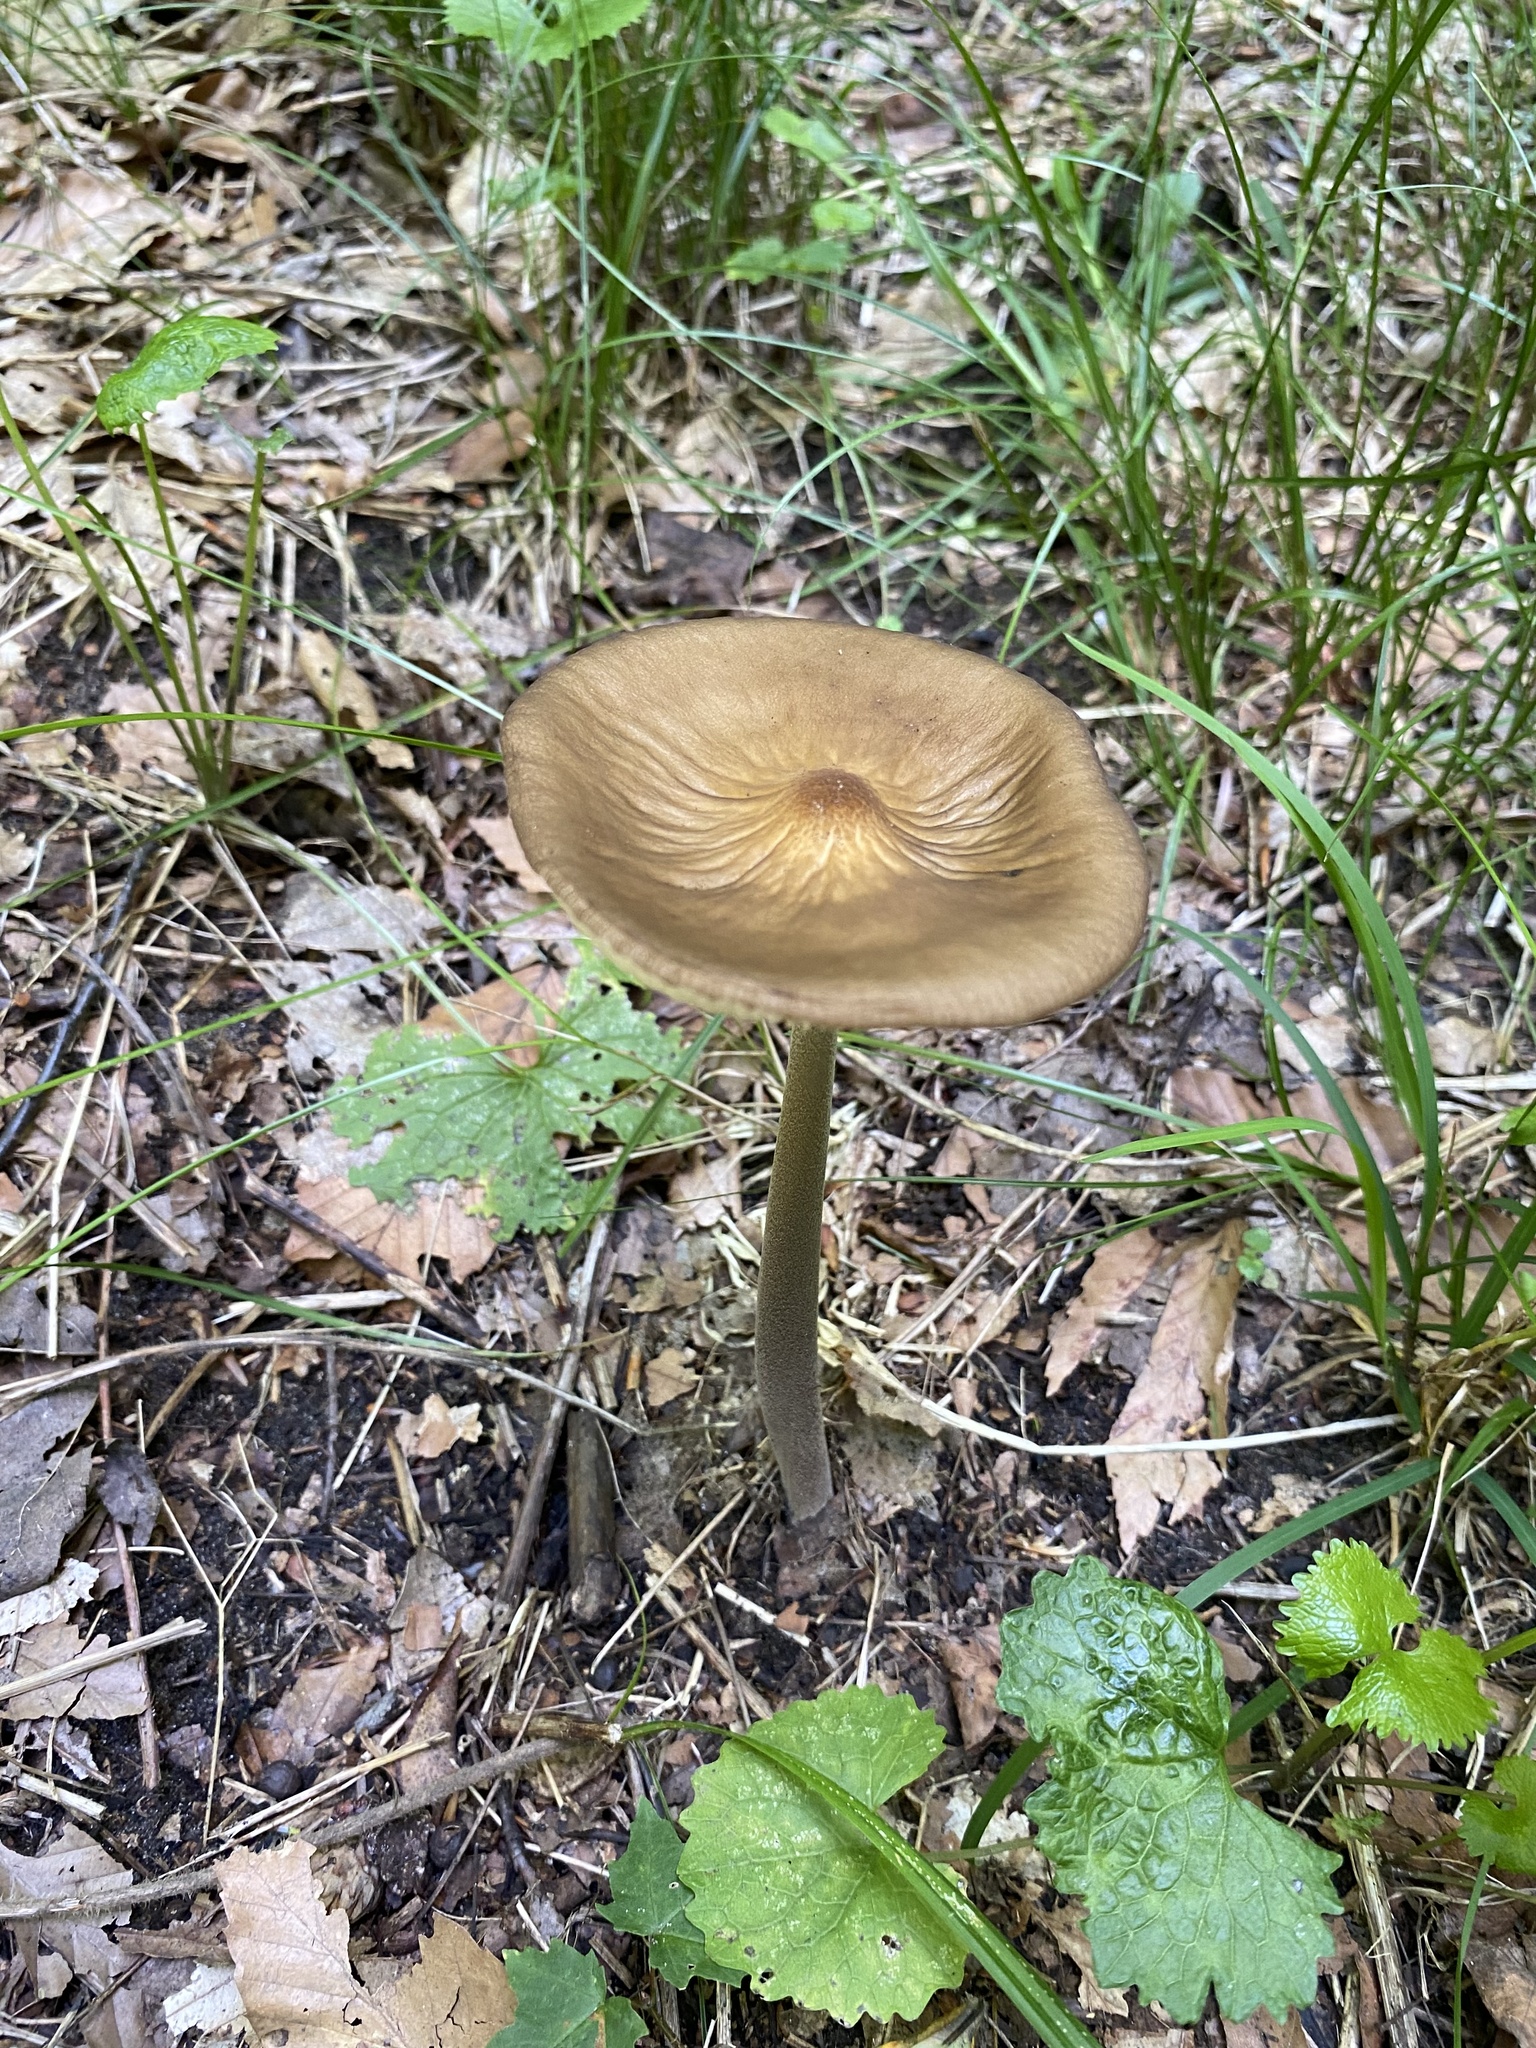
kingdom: Fungi
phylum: Basidiomycota
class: Agaricomycetes
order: Agaricales
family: Physalacriaceae
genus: Hymenopellis
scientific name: Hymenopellis furfuracea
